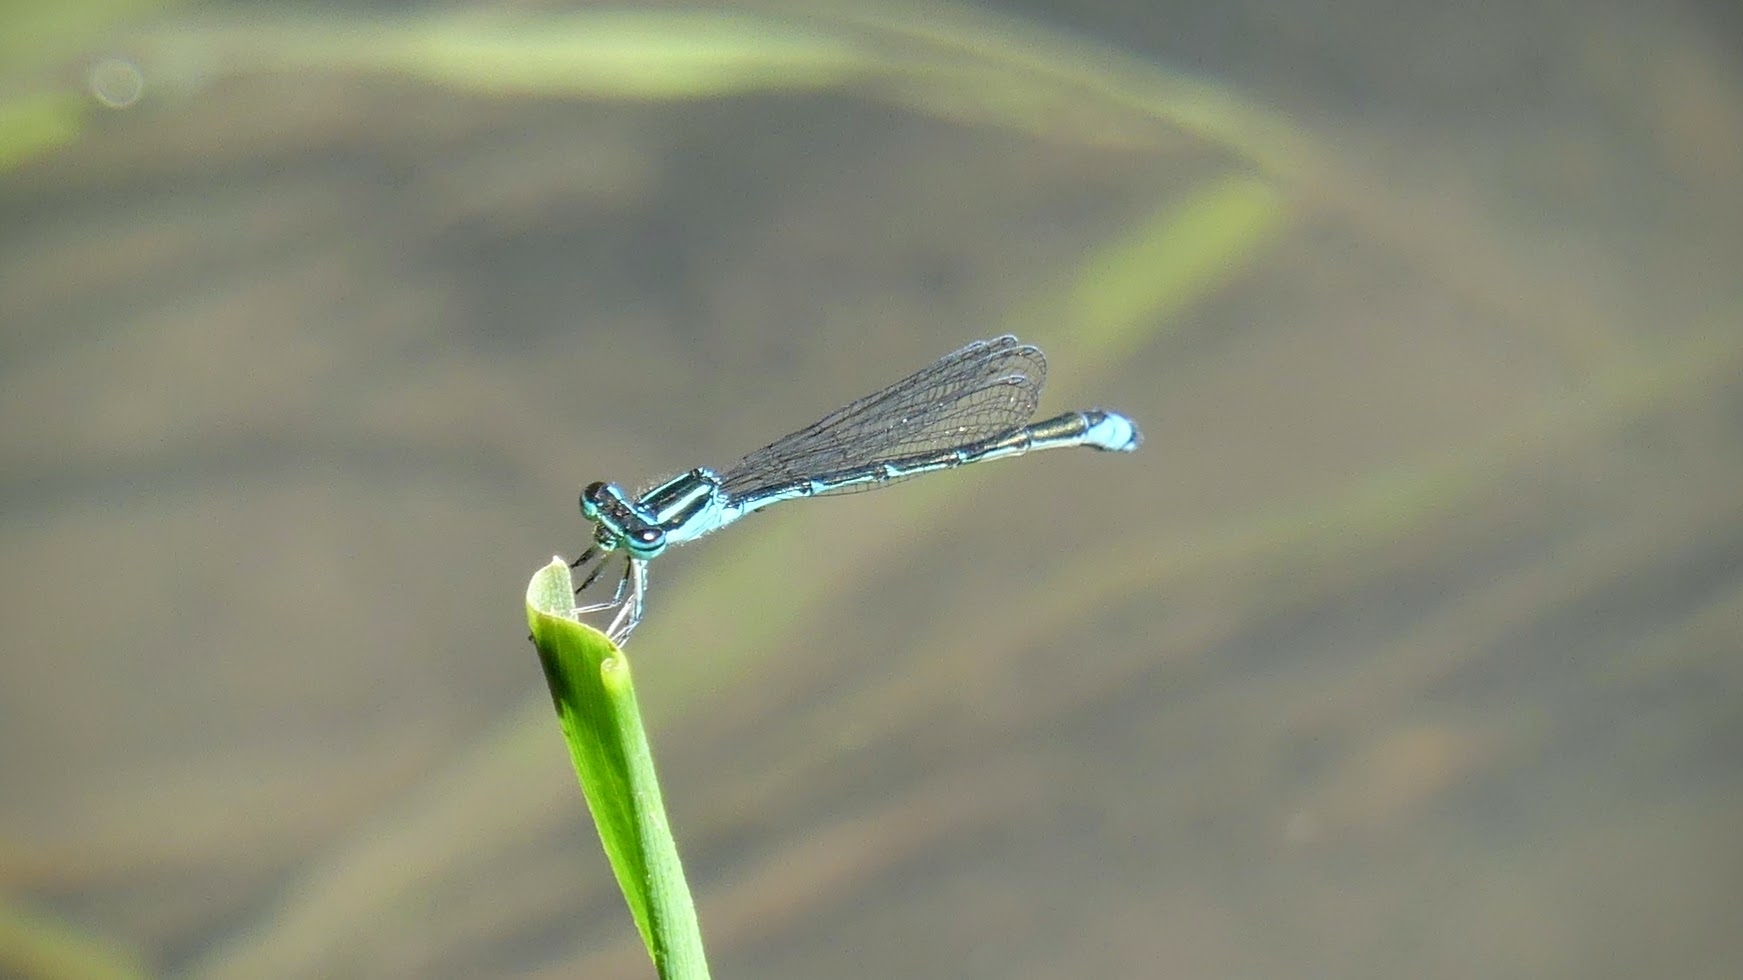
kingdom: Animalia
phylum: Arthropoda
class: Insecta
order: Odonata
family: Coenagrionidae
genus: Enallagma
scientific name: Enallagma exsulans
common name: Stream bluet
